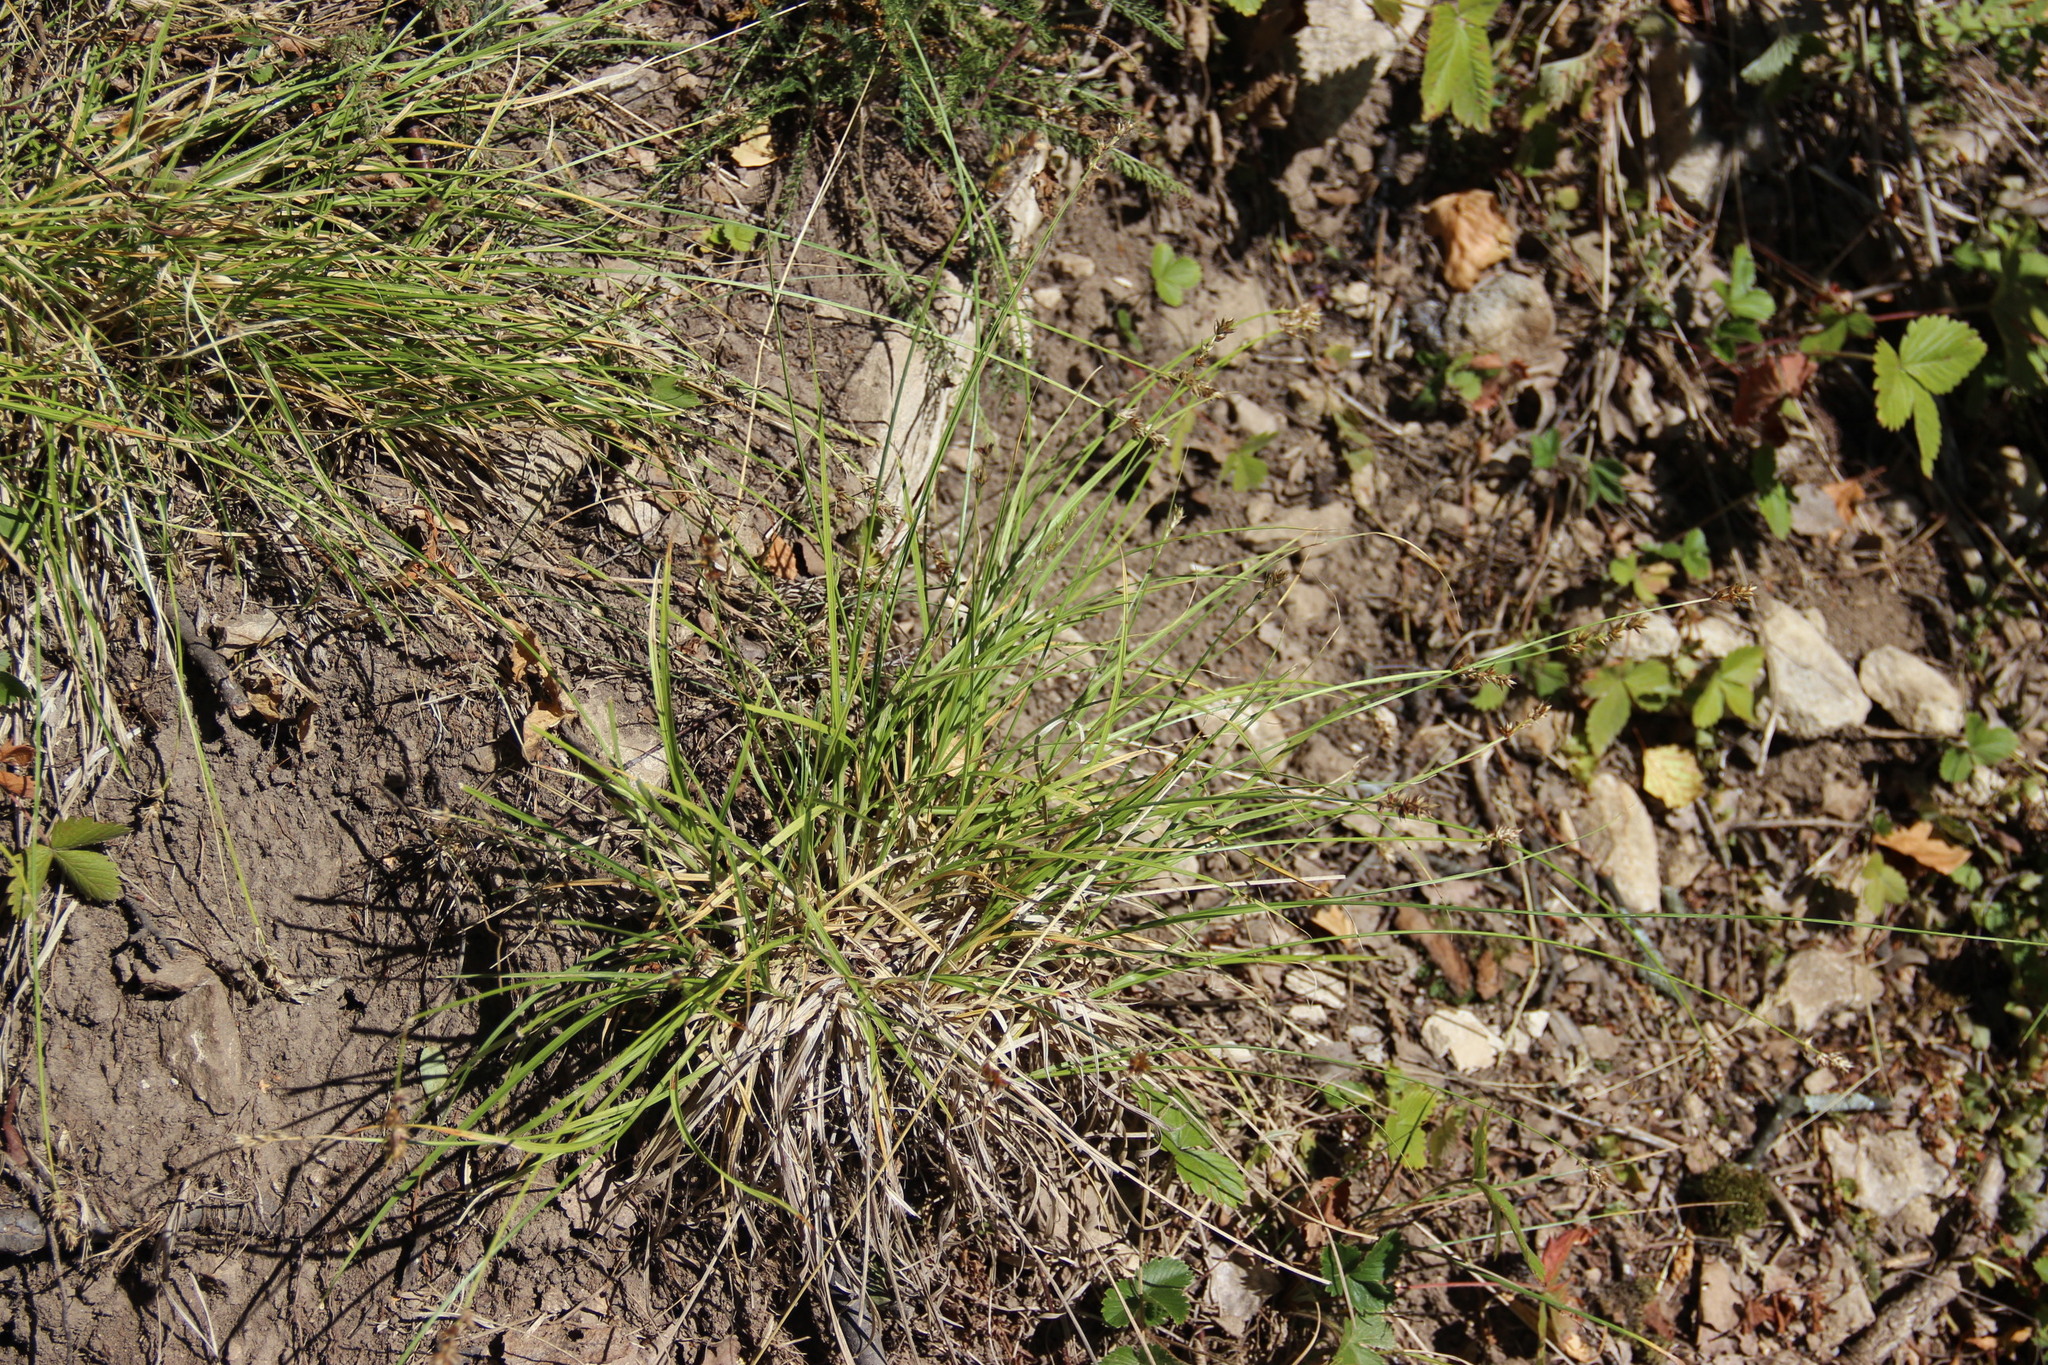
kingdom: Plantae
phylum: Tracheophyta
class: Liliopsida
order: Poales
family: Cyperaceae
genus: Carex
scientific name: Carex spicata
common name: Spiked sedge
